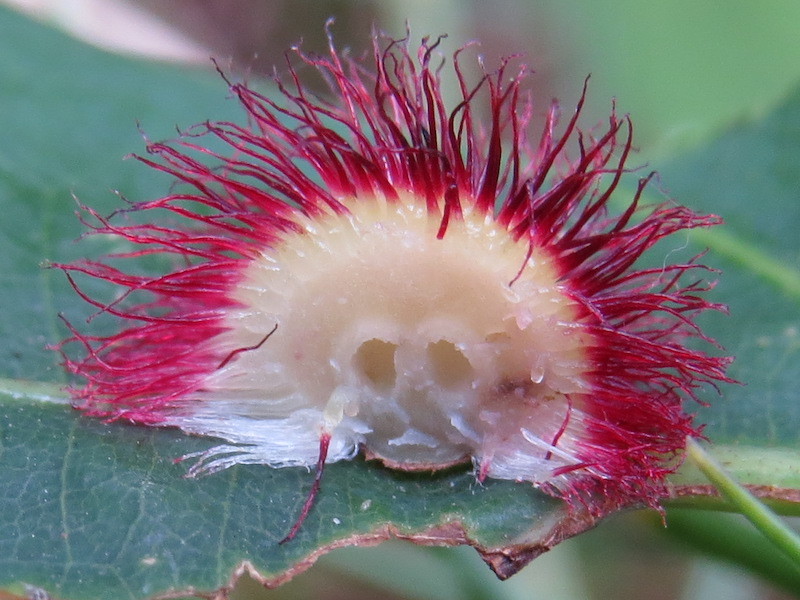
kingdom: Animalia
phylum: Arthropoda
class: Insecta
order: Hymenoptera
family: Cynipidae
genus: Acraspis
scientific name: Acraspis erinacei
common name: Hedgehog gall wasp
